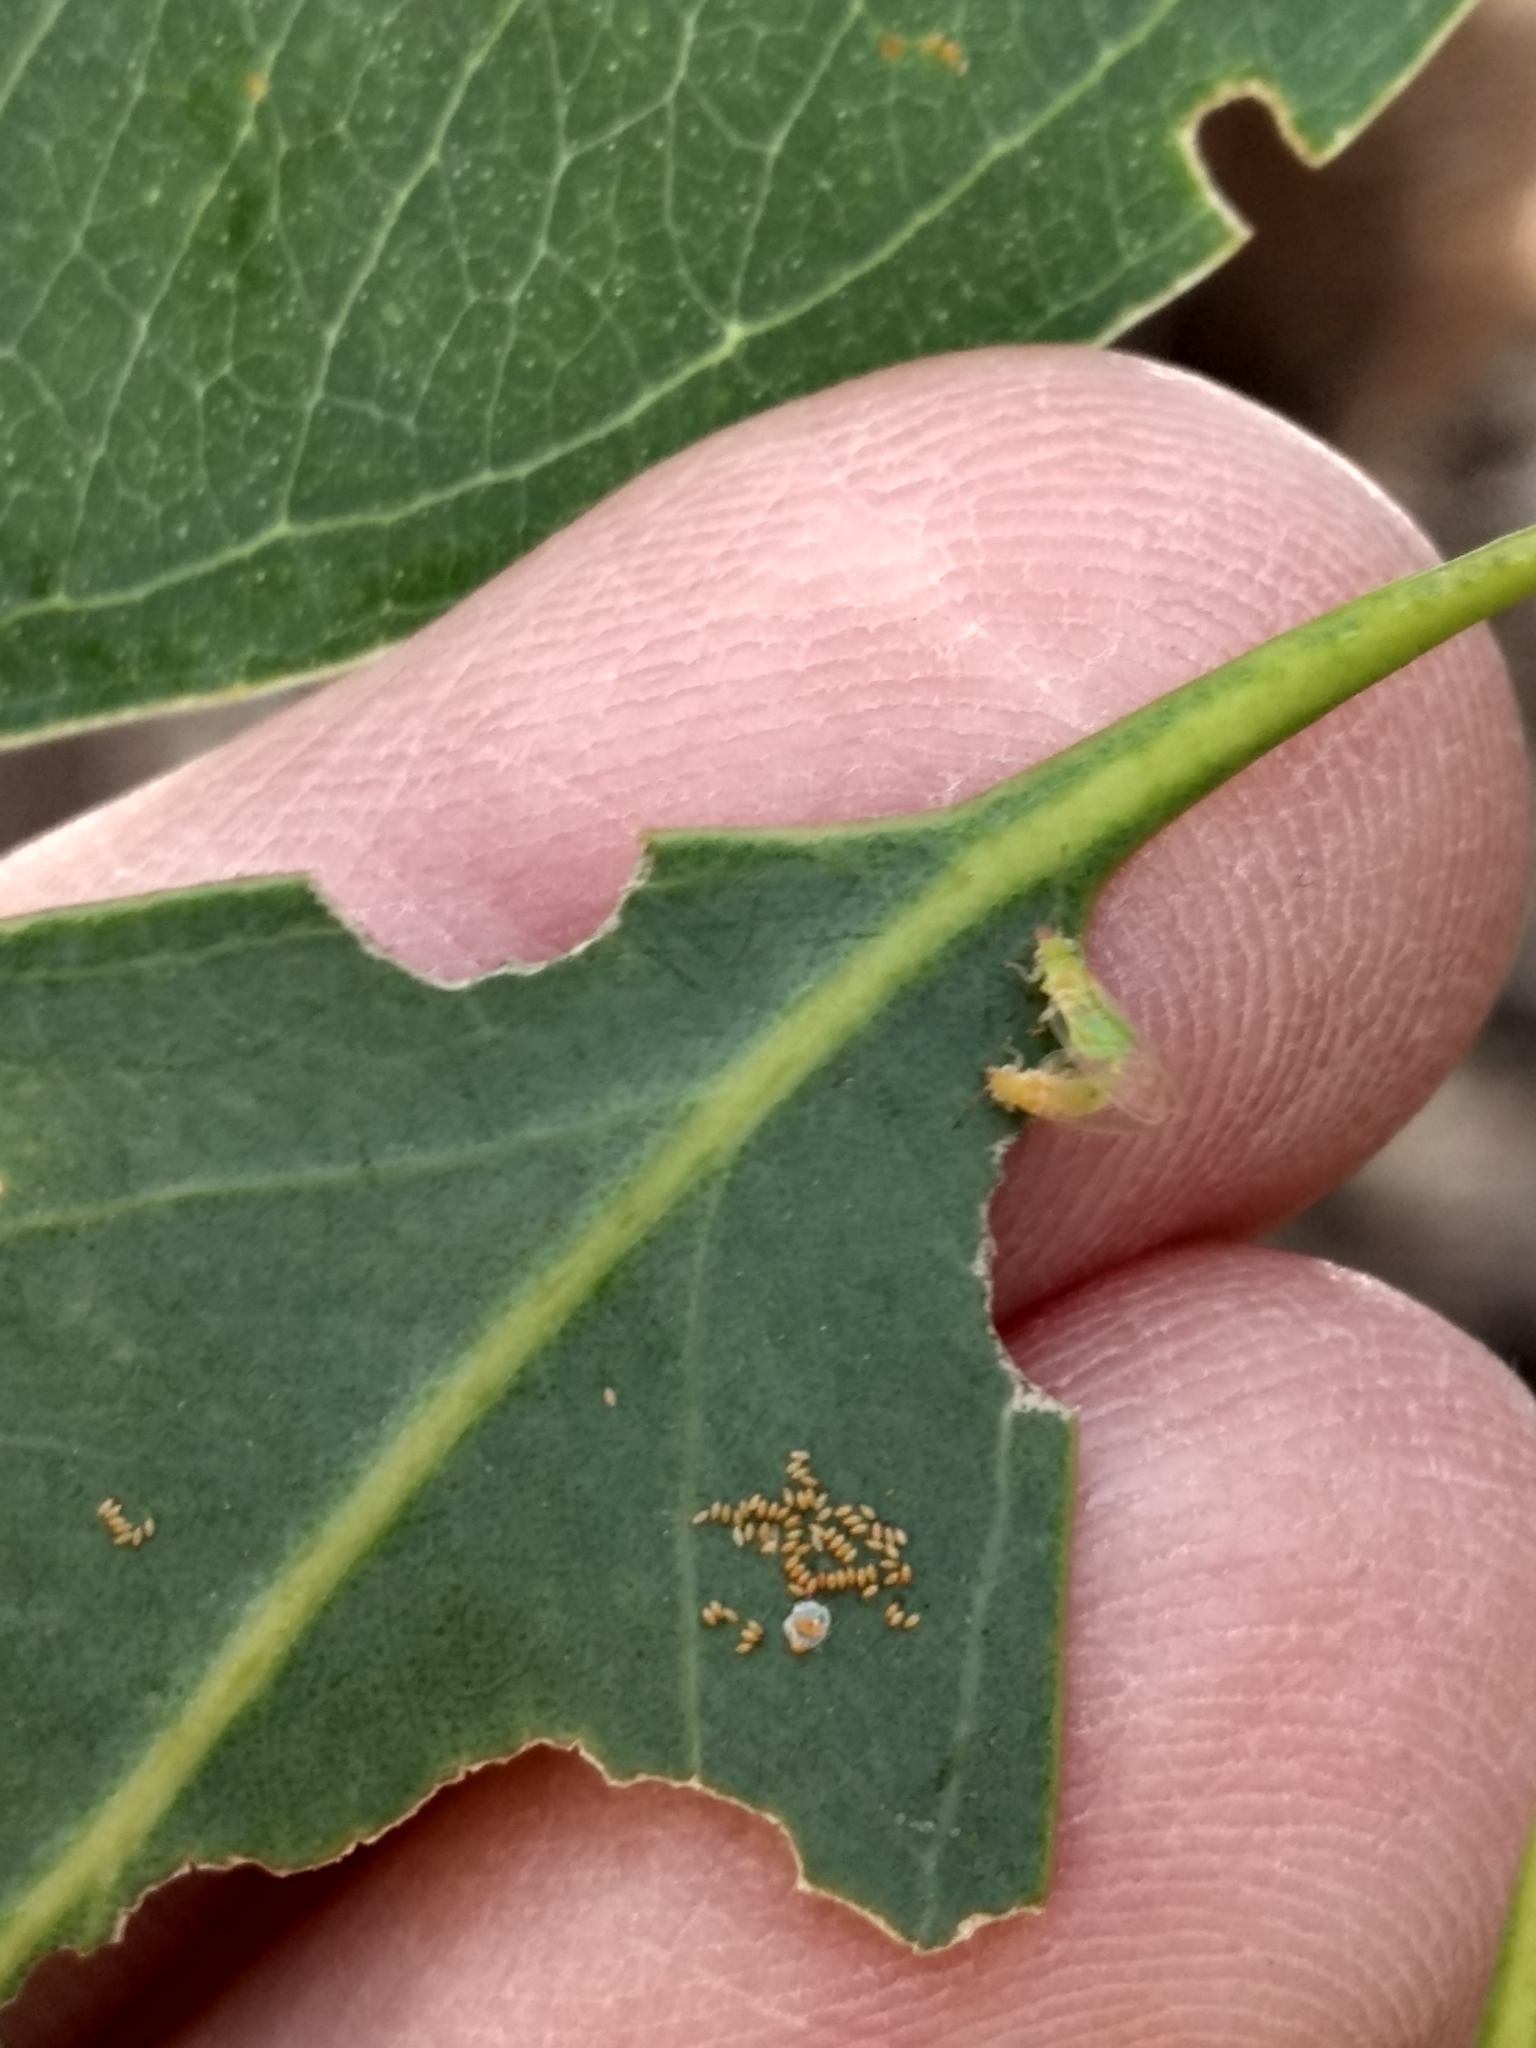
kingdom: Animalia
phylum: Arthropoda
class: Insecta
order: Hemiptera
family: Aphalaridae
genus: Glycaspis
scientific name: Glycaspis brimblecombei
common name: Red gum lerp psyllid
